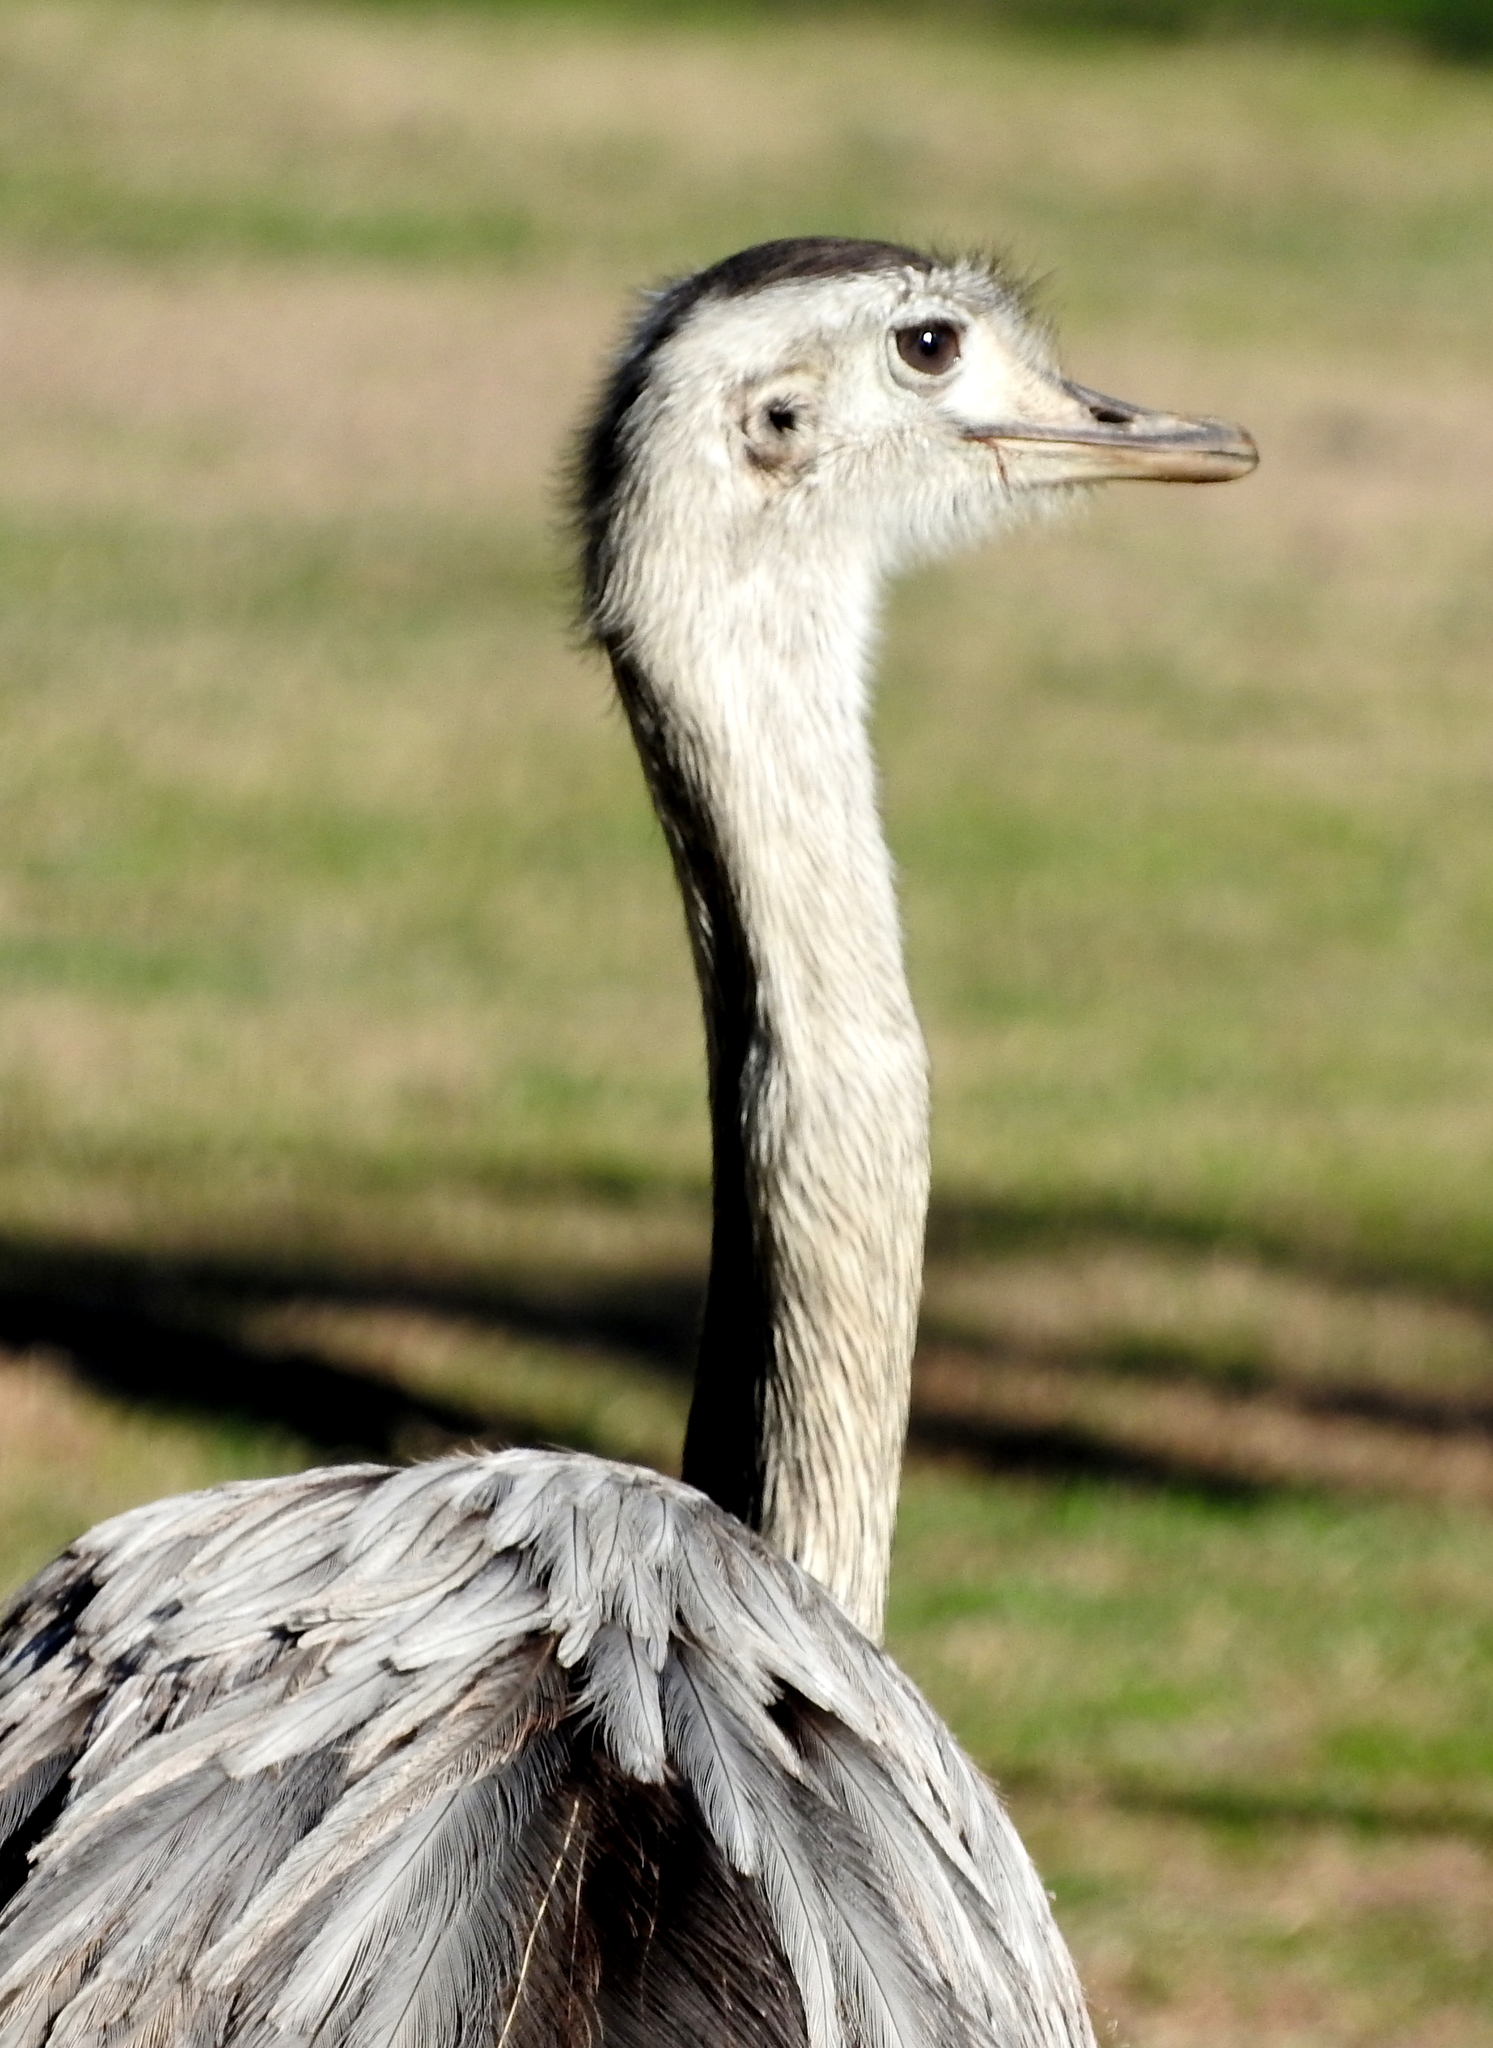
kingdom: Animalia
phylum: Chordata
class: Aves
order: Rheiformes
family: Rheidae
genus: Rhea
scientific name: Rhea americana
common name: Greater rhea
